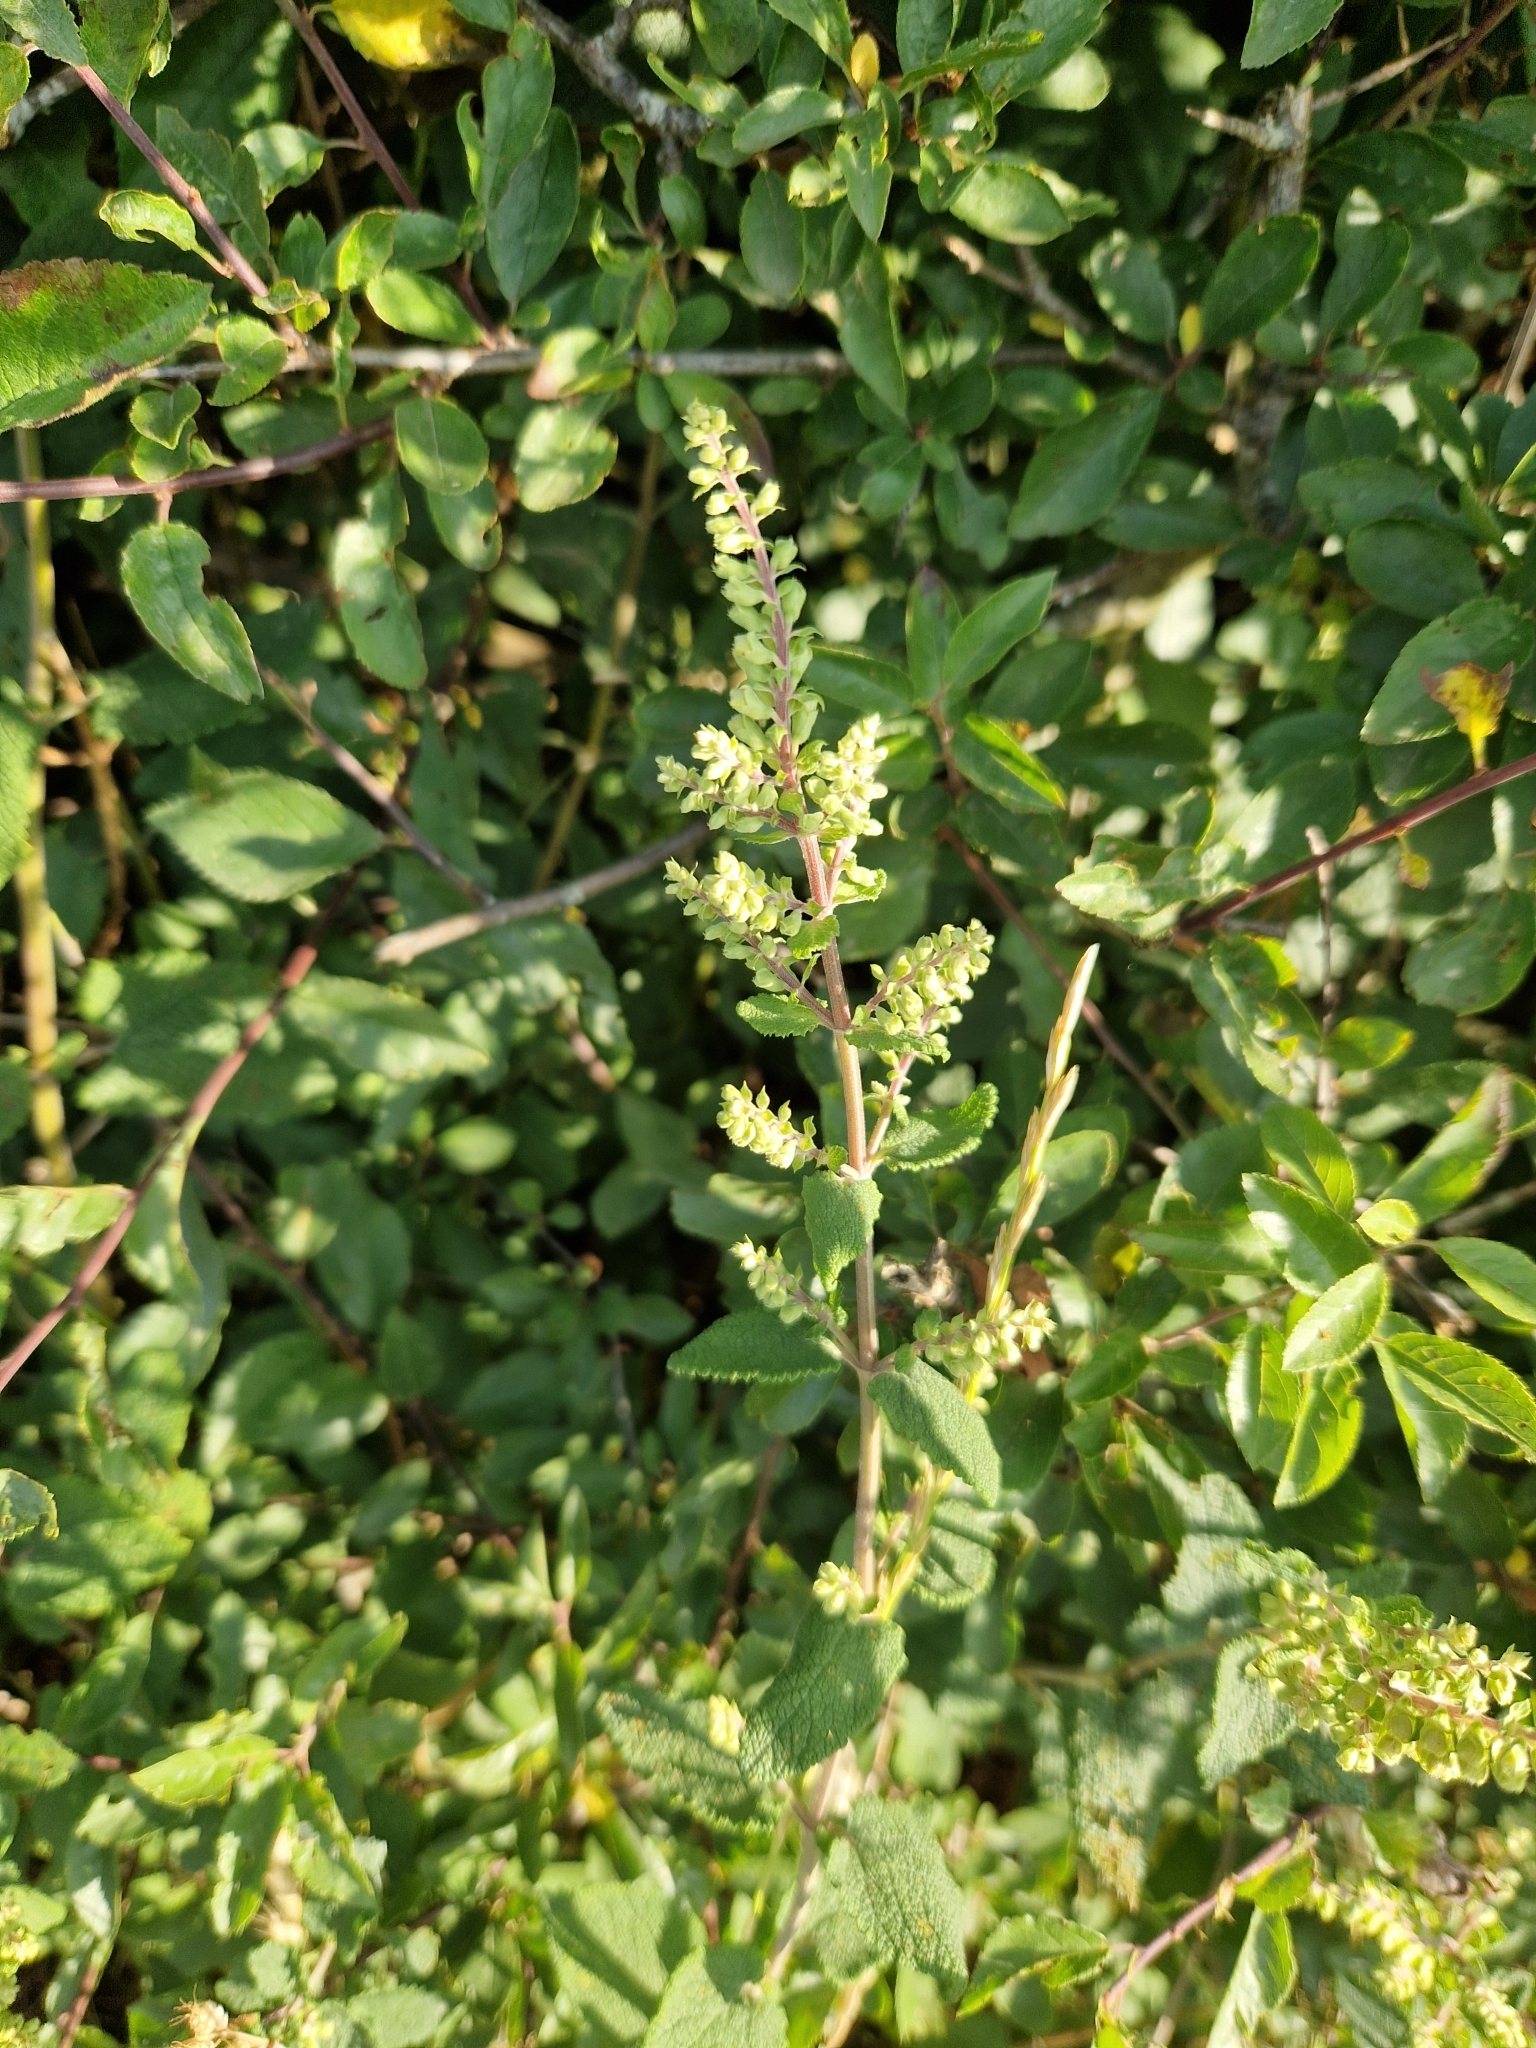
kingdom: Plantae
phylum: Tracheophyta
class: Magnoliopsida
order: Lamiales
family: Lamiaceae
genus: Teucrium
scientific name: Teucrium scorodonia
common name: Woodland germander
